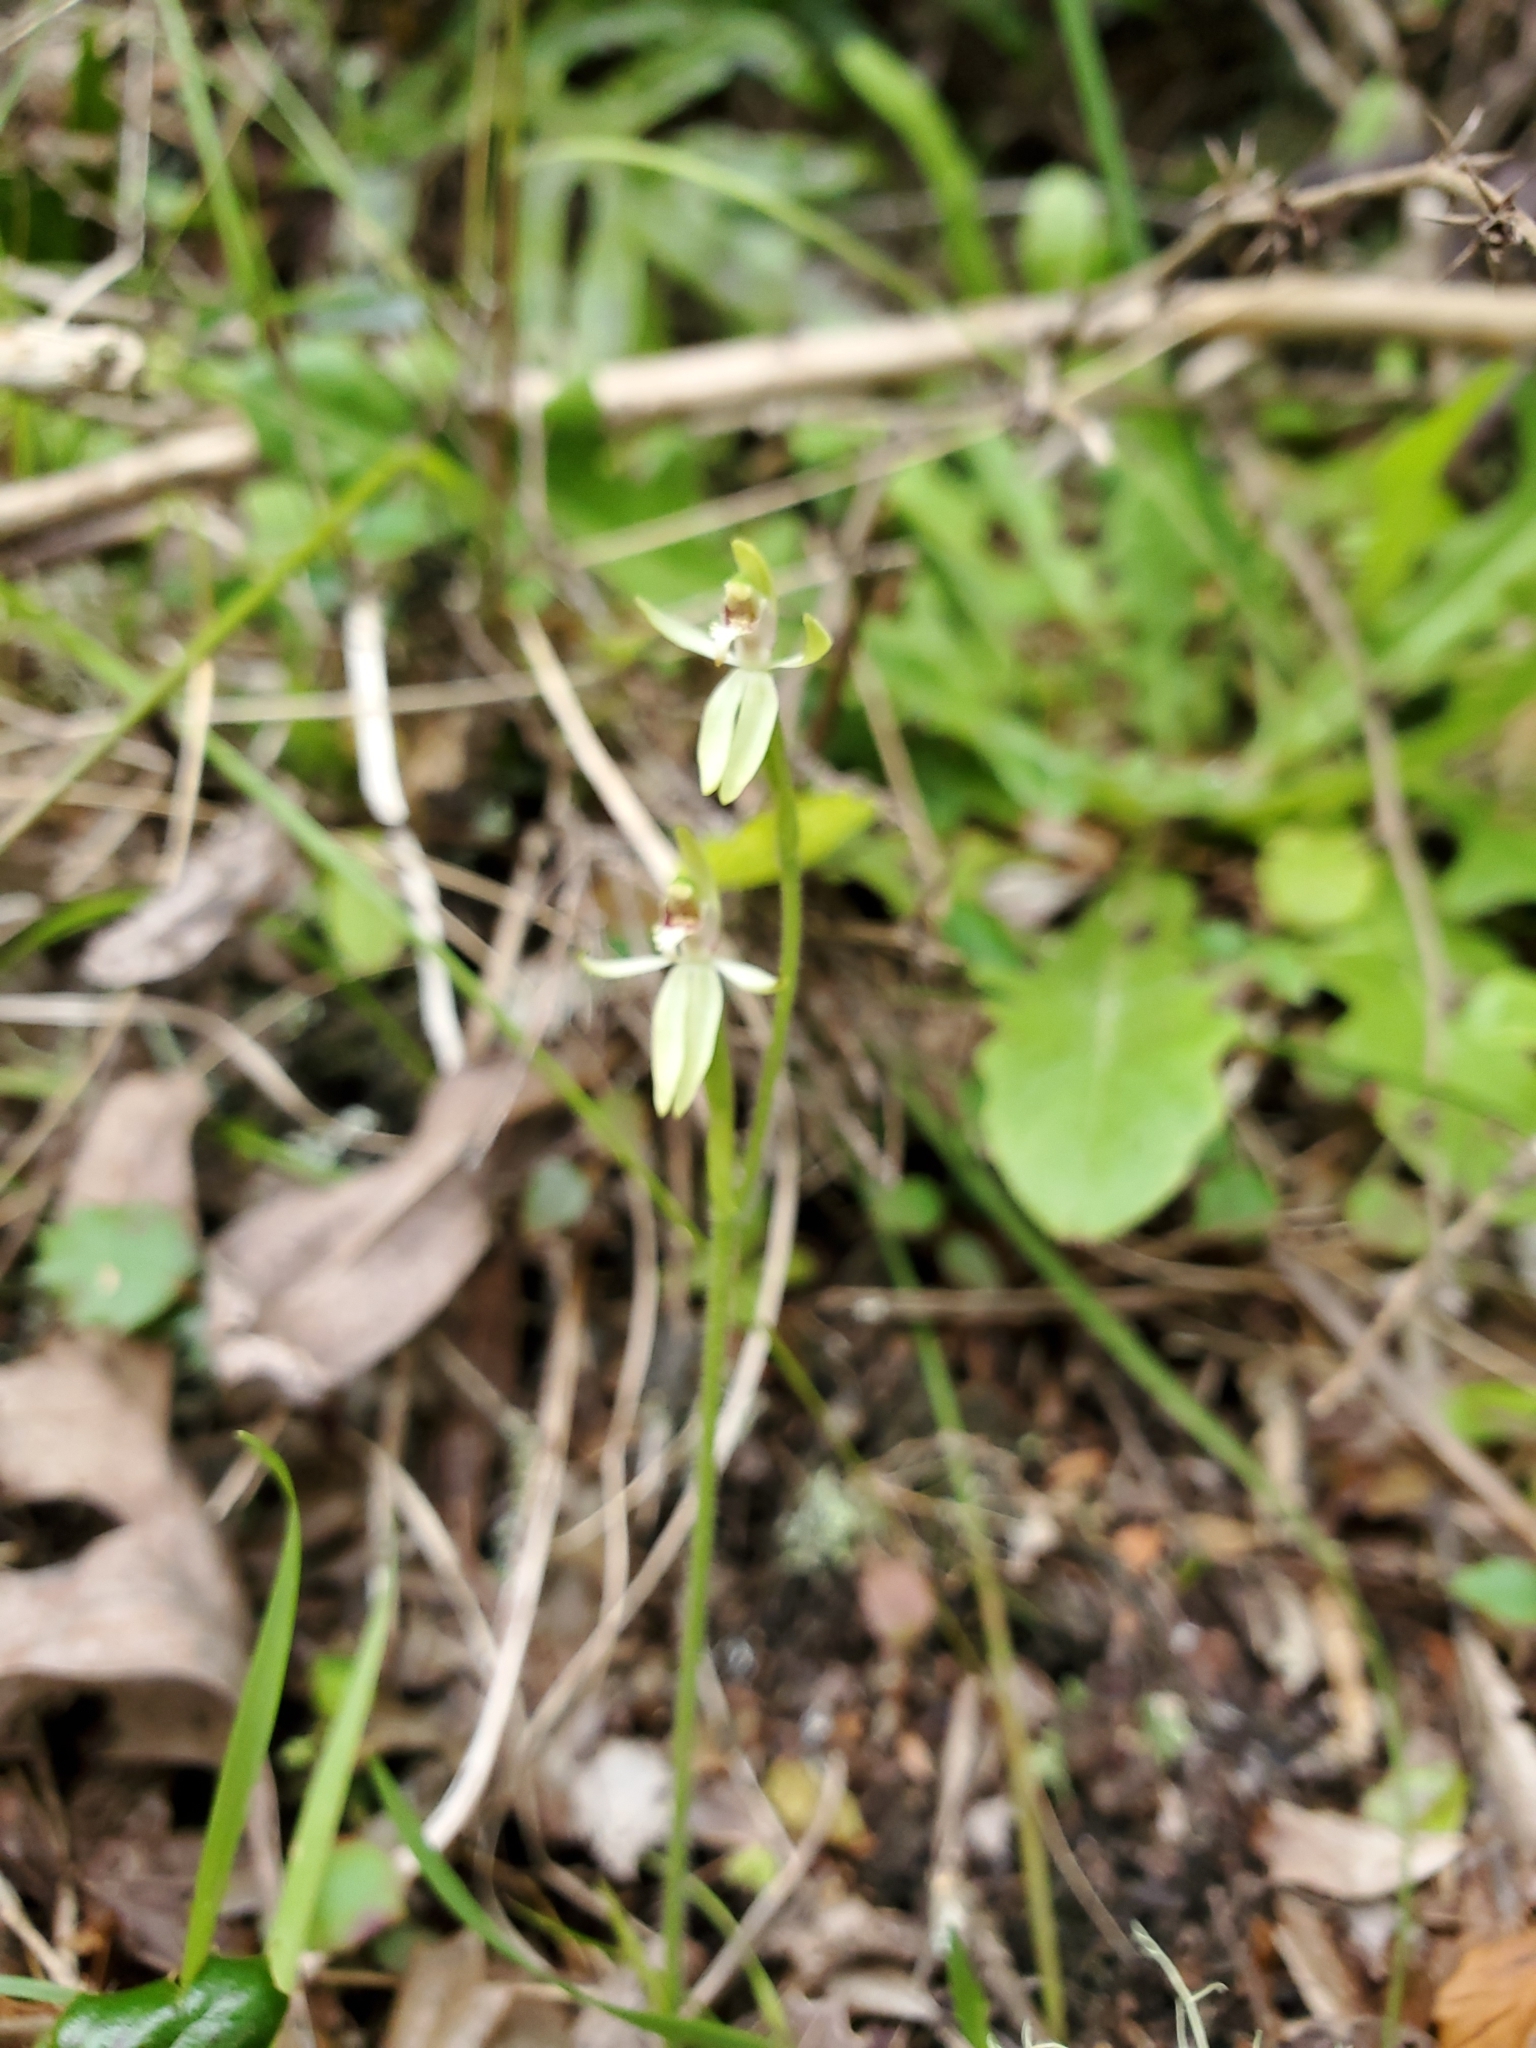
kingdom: Plantae
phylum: Tracheophyta
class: Liliopsida
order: Asparagales
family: Orchidaceae
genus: Caladenia
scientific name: Caladenia chlorostyla
